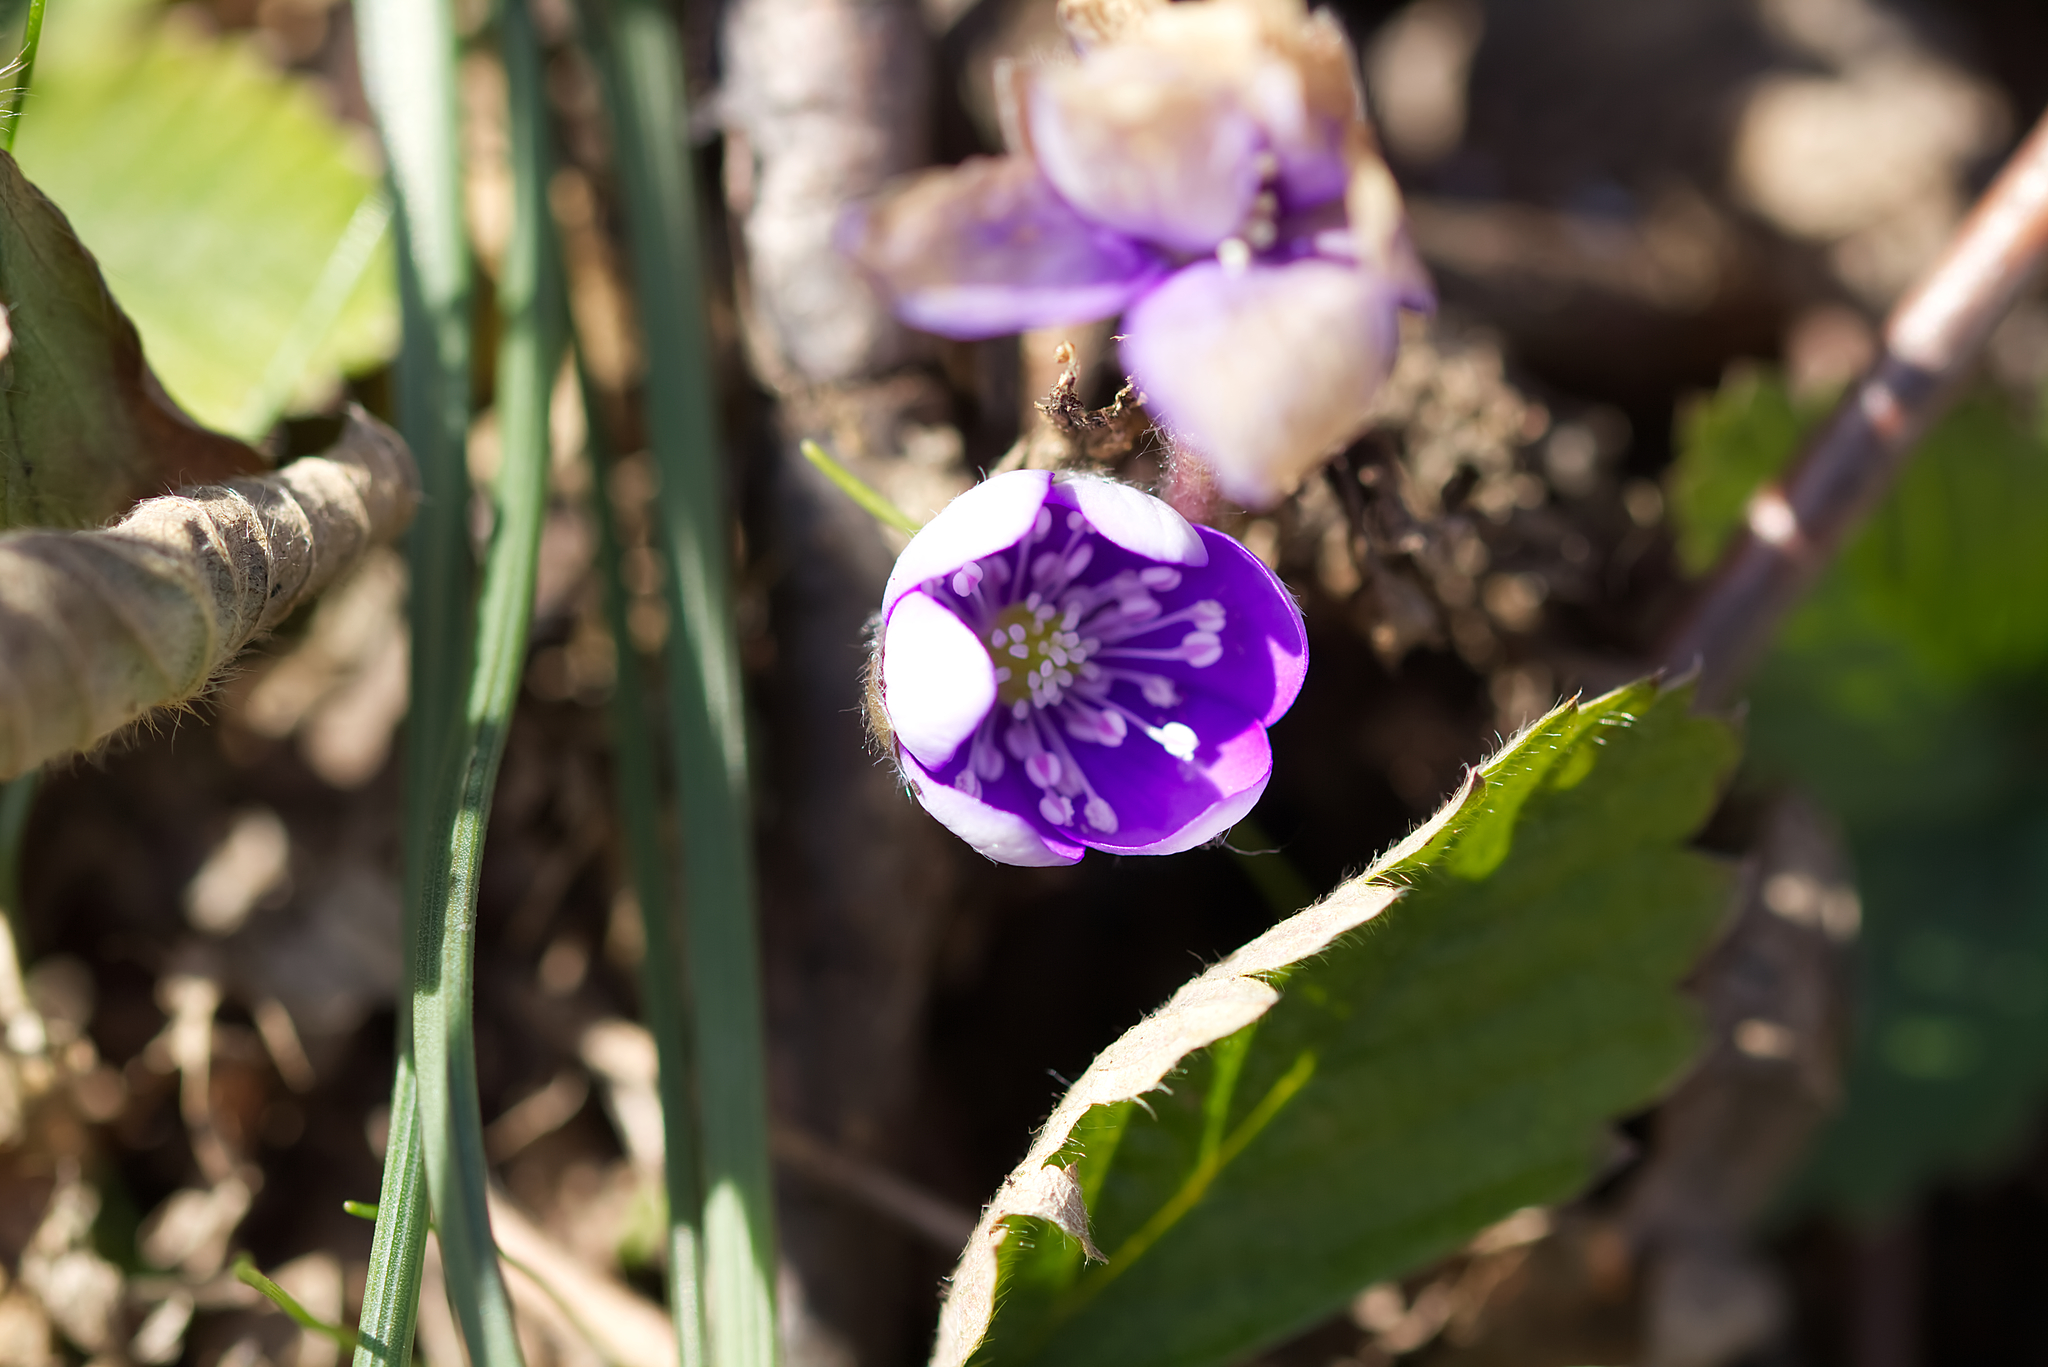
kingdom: Plantae
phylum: Tracheophyta
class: Magnoliopsida
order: Ranunculales
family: Ranunculaceae
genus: Hepatica
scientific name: Hepatica nobilis
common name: Liverleaf
